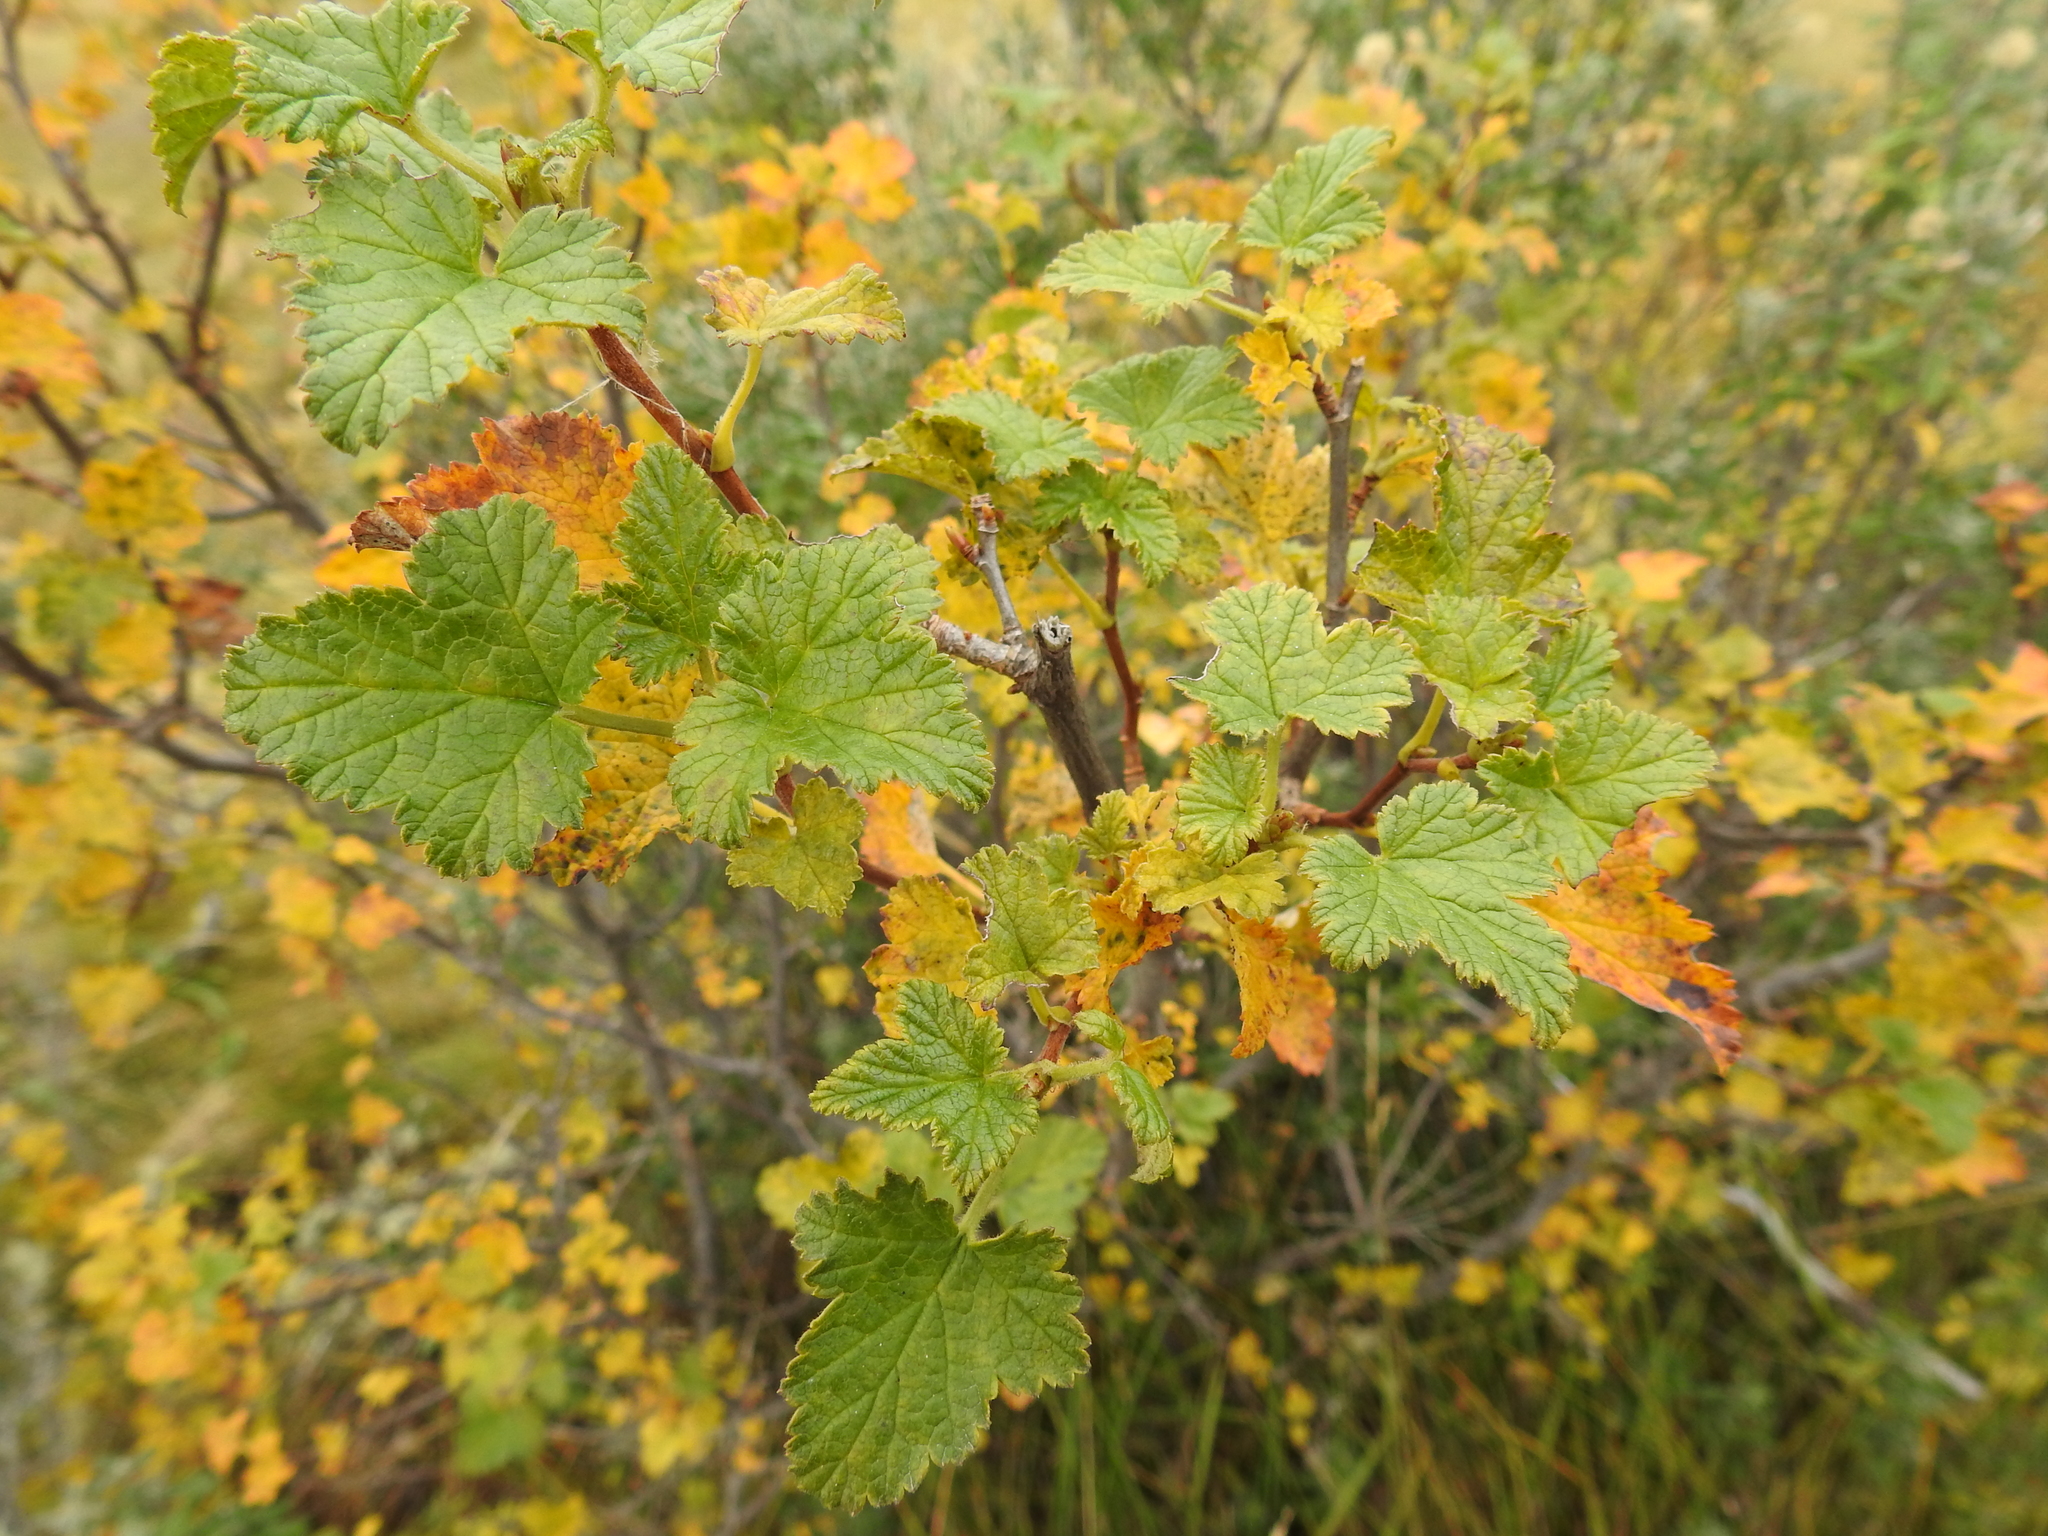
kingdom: Plantae
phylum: Tracheophyta
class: Magnoliopsida
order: Saxifragales
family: Grossulariaceae
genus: Ribes
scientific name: Ribes magellanicum
